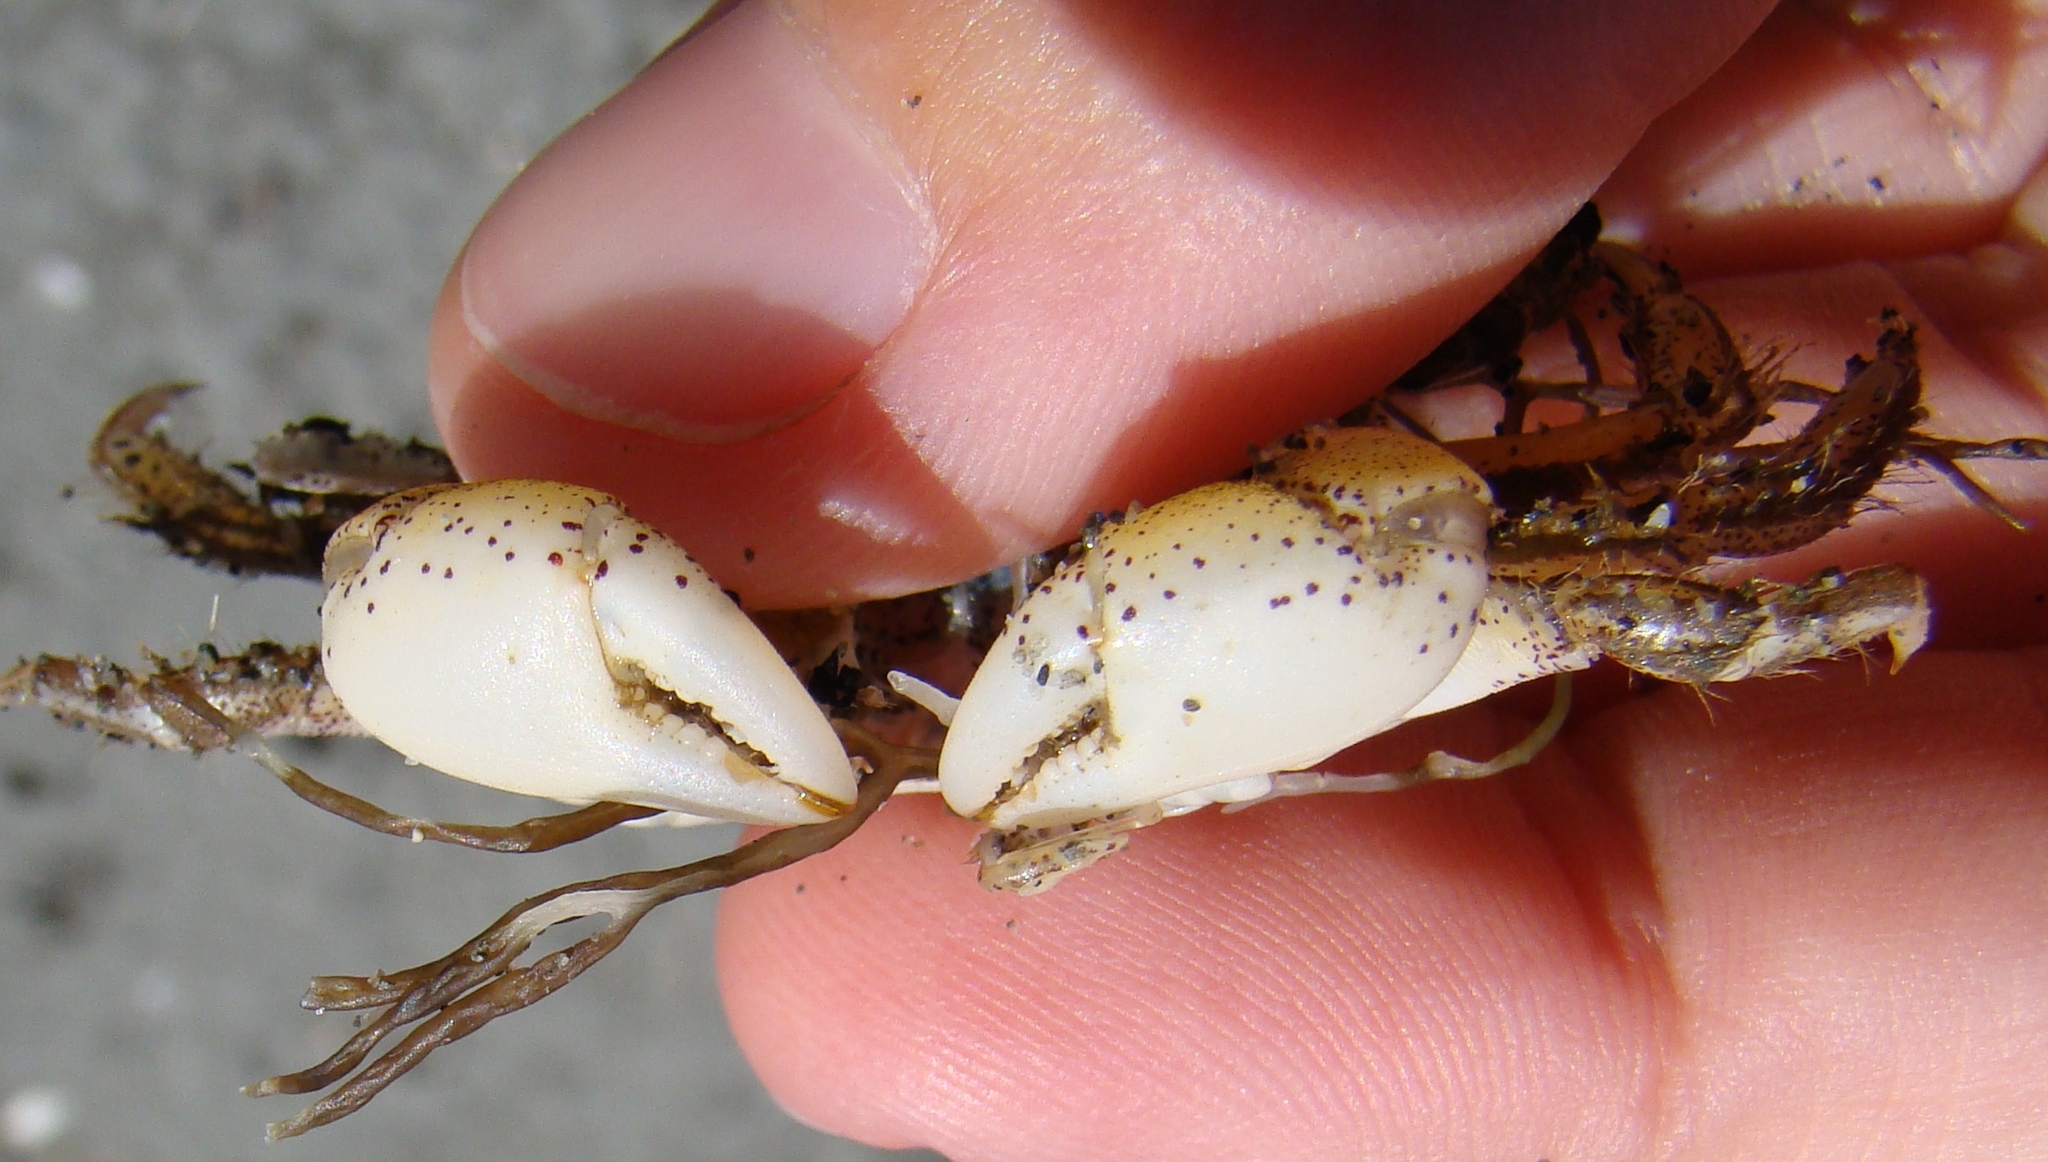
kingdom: Animalia
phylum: Arthropoda
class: Malacostraca
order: Decapoda
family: Varunidae
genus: Hemigrapsus
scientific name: Hemigrapsus crenulatus
